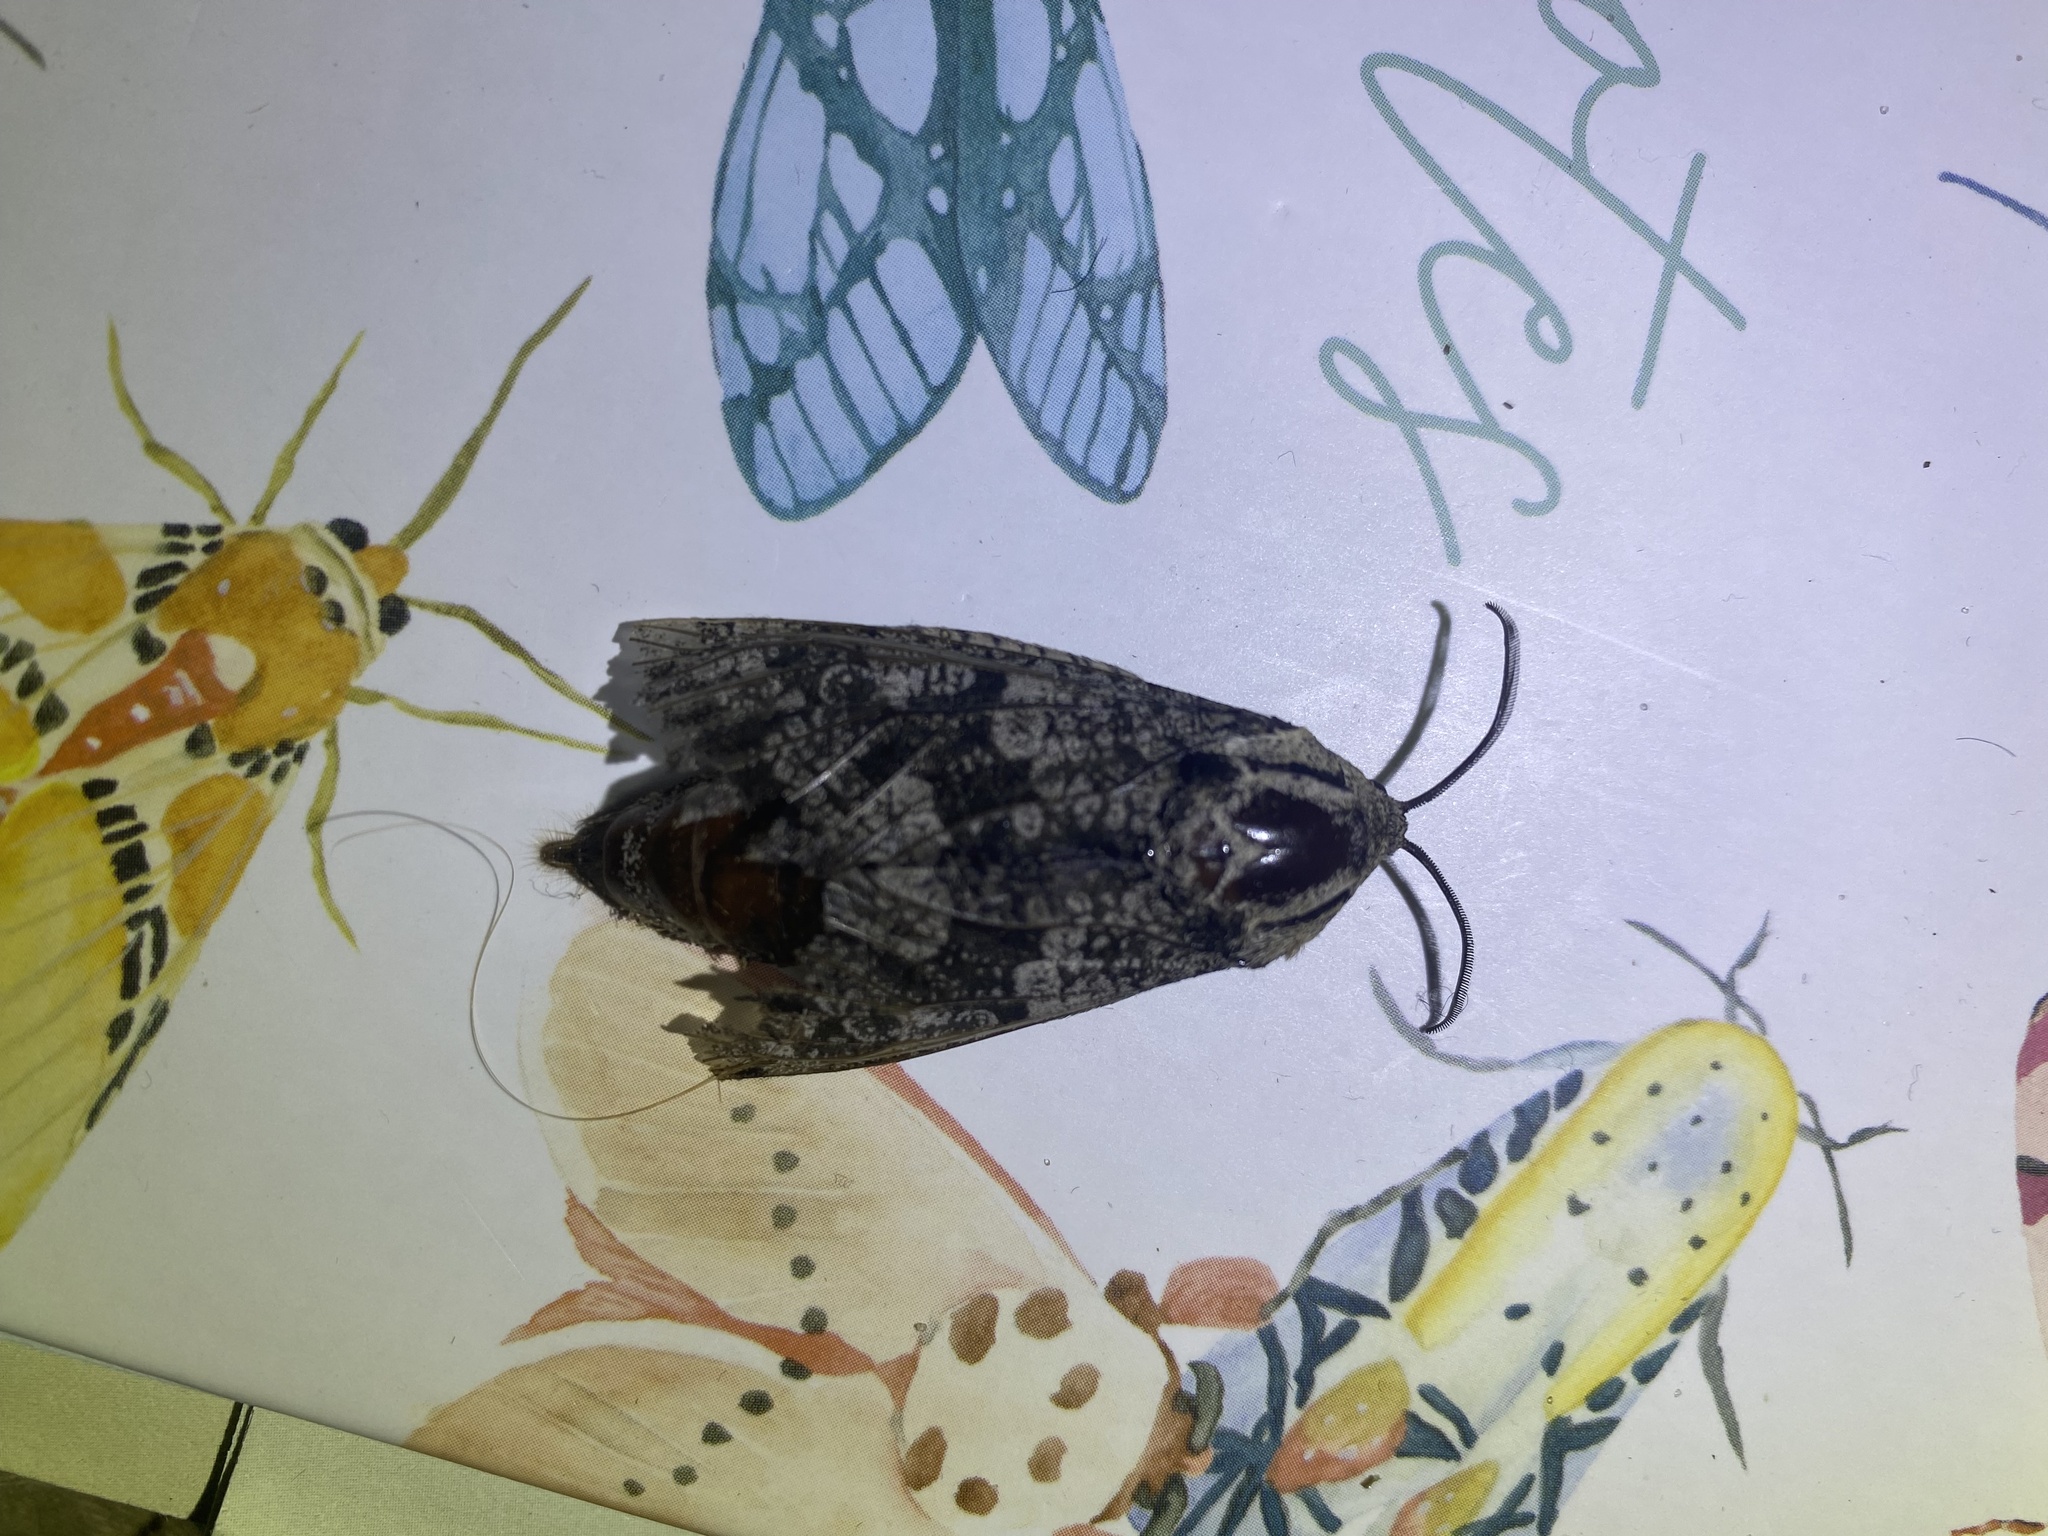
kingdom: Animalia
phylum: Arthropoda
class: Insecta
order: Lepidoptera
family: Cossidae
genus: Prionoxystus
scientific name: Prionoxystus robiniae
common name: Carpenterworm
